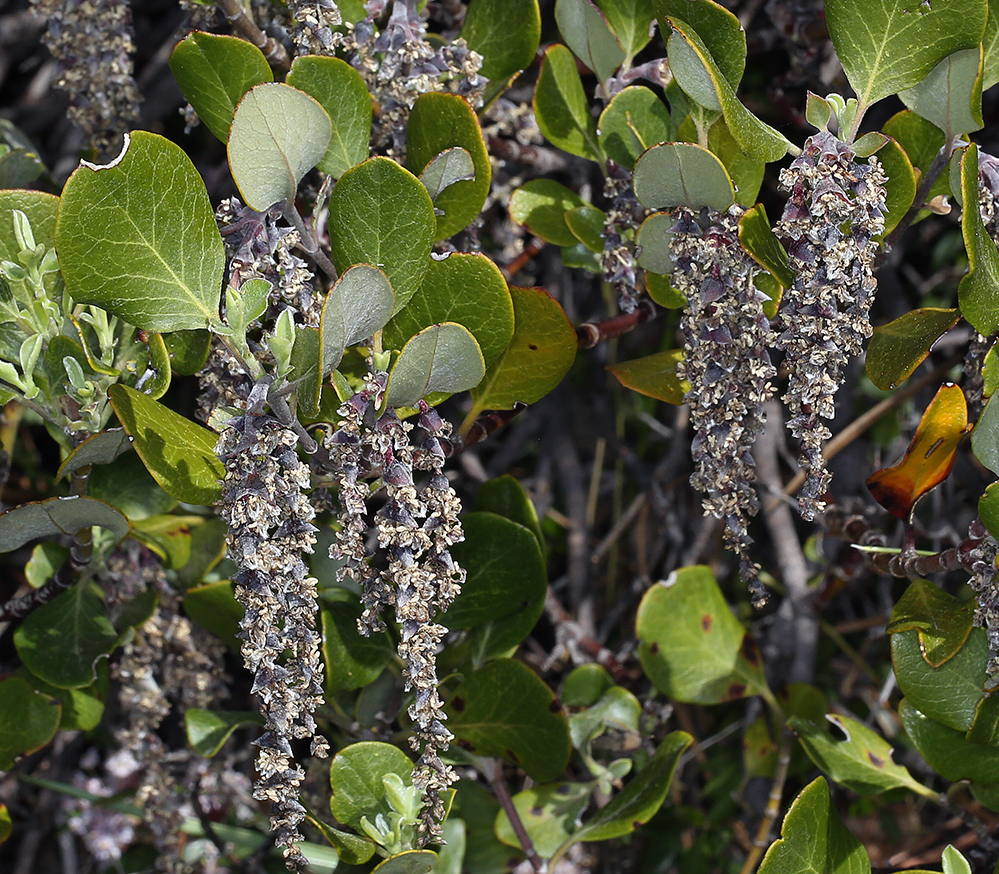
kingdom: Plantae
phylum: Tracheophyta
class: Magnoliopsida
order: Garryales
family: Garryaceae
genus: Garrya
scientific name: Garrya buxifolia
